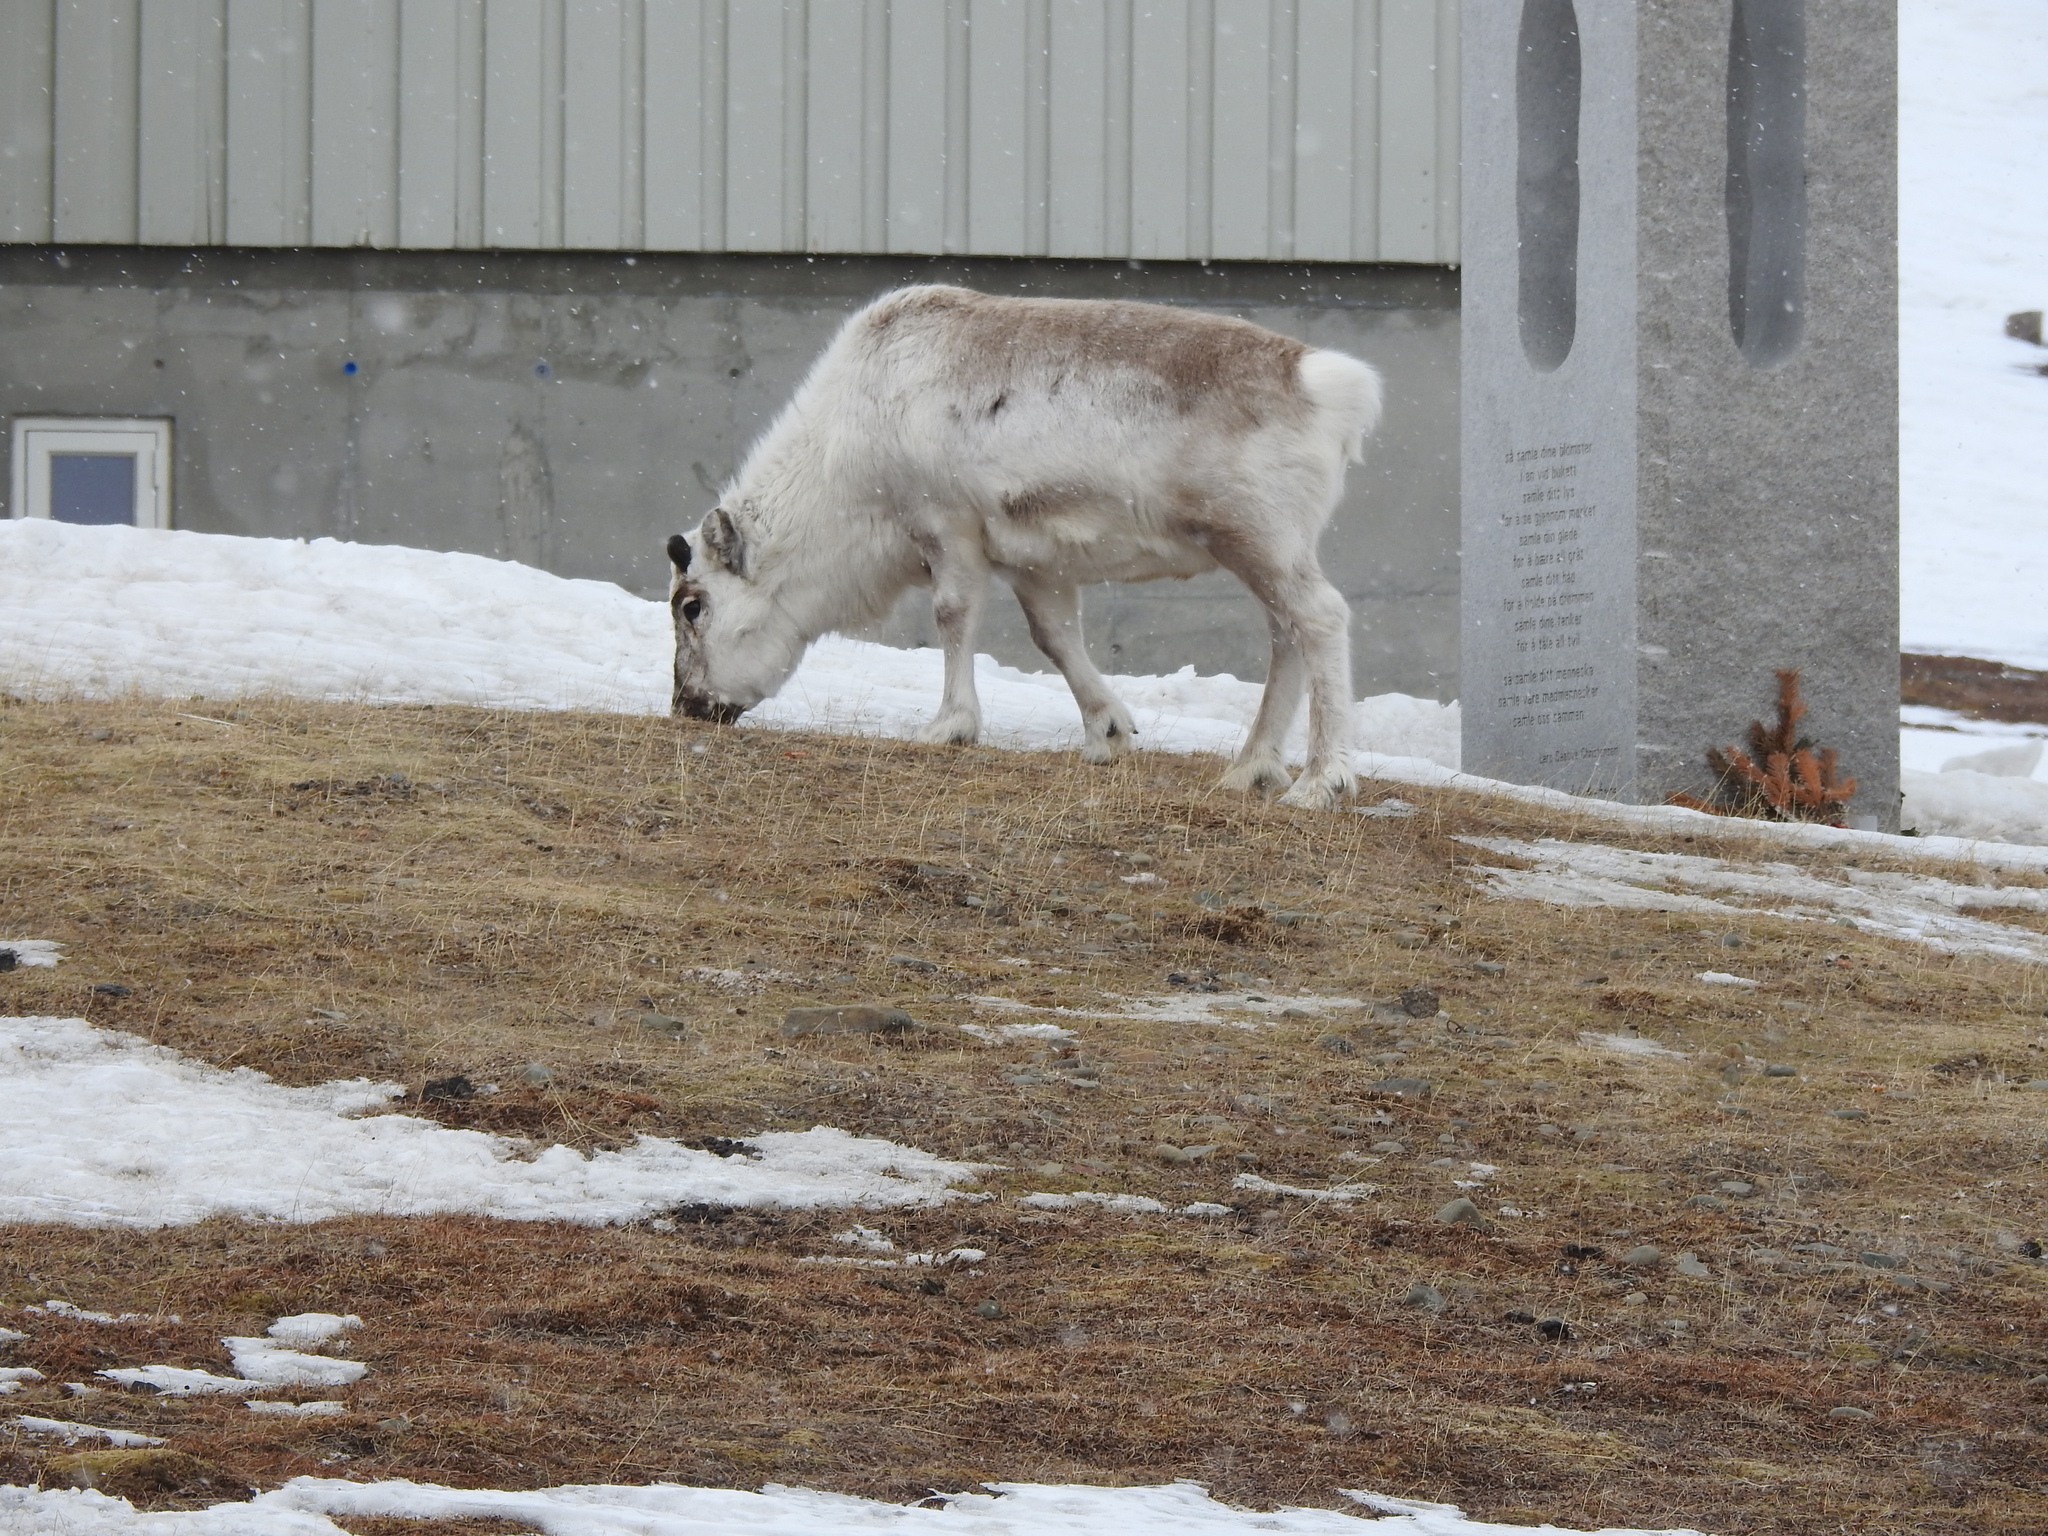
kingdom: Animalia
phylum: Chordata
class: Mammalia
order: Artiodactyla
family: Cervidae
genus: Rangifer
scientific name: Rangifer tarandus
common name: Reindeer
